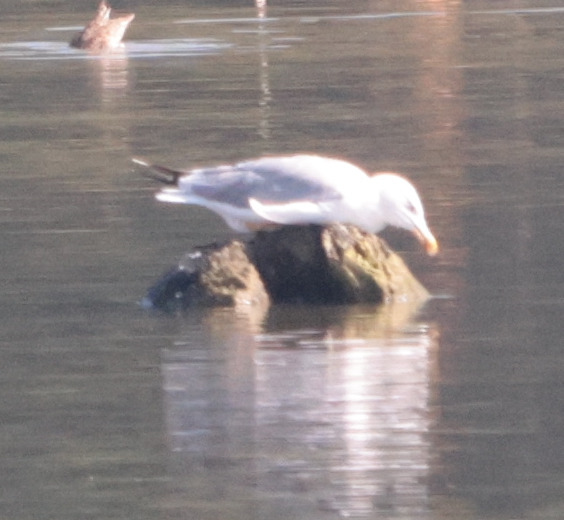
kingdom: Animalia
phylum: Chordata
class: Aves
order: Charadriiformes
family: Laridae
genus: Larus
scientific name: Larus michahellis
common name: Yellow-legged gull
